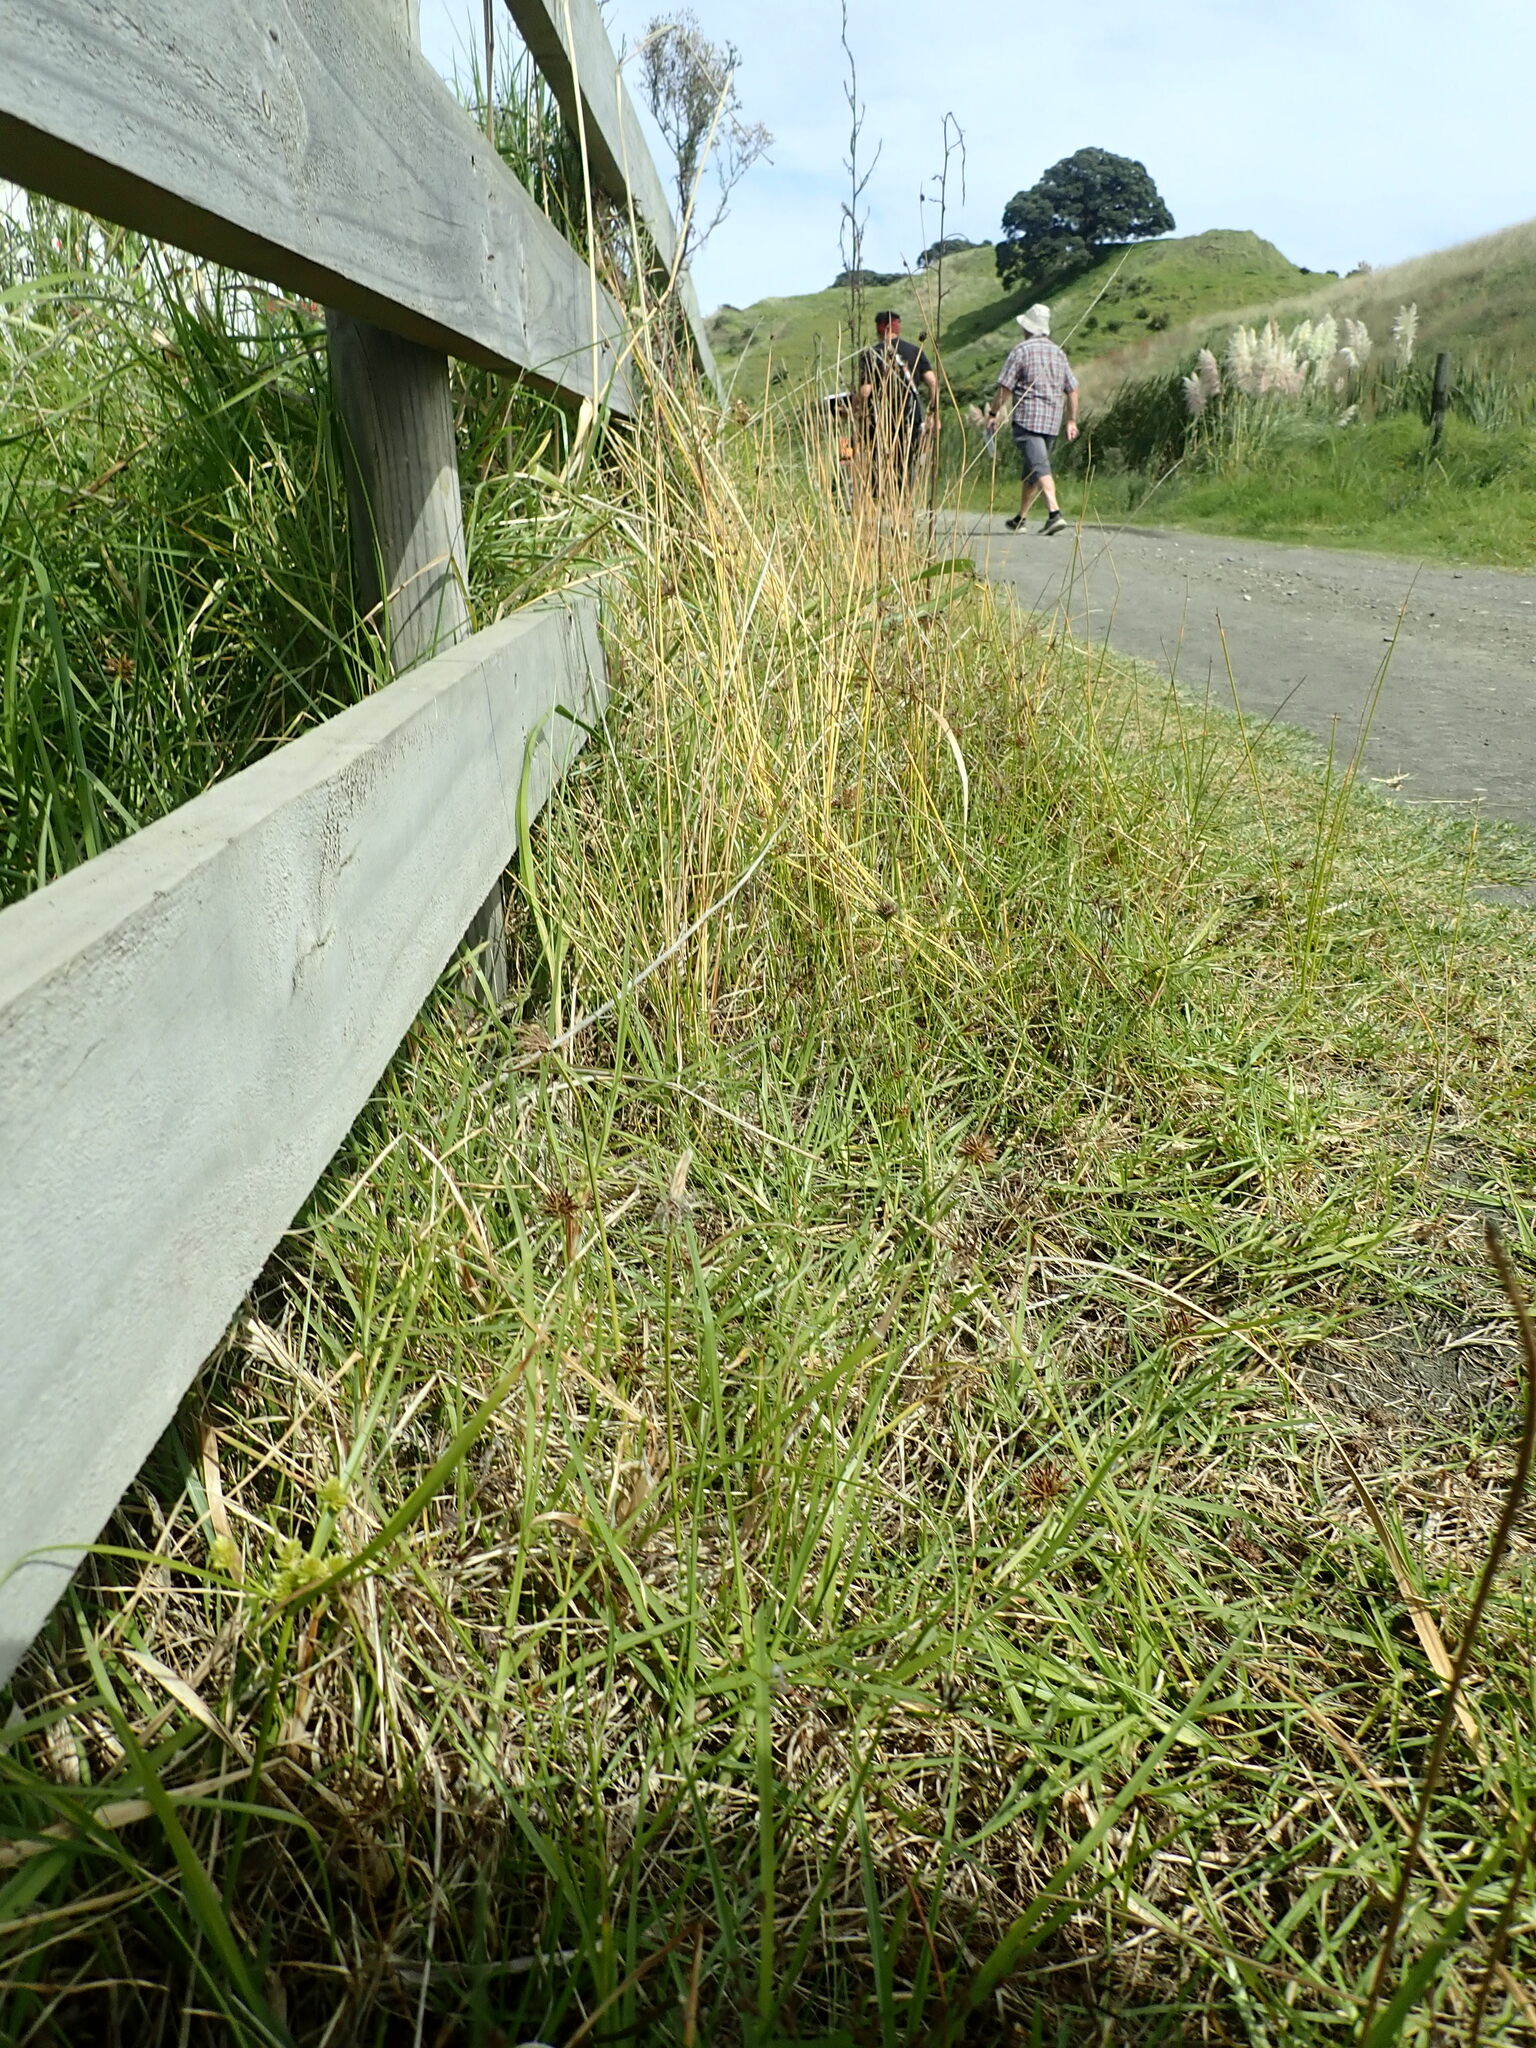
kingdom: Plantae
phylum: Tracheophyta
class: Liliopsida
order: Poales
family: Cyperaceae
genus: Cyperus
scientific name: Cyperus eragrostis
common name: Tall flatsedge
